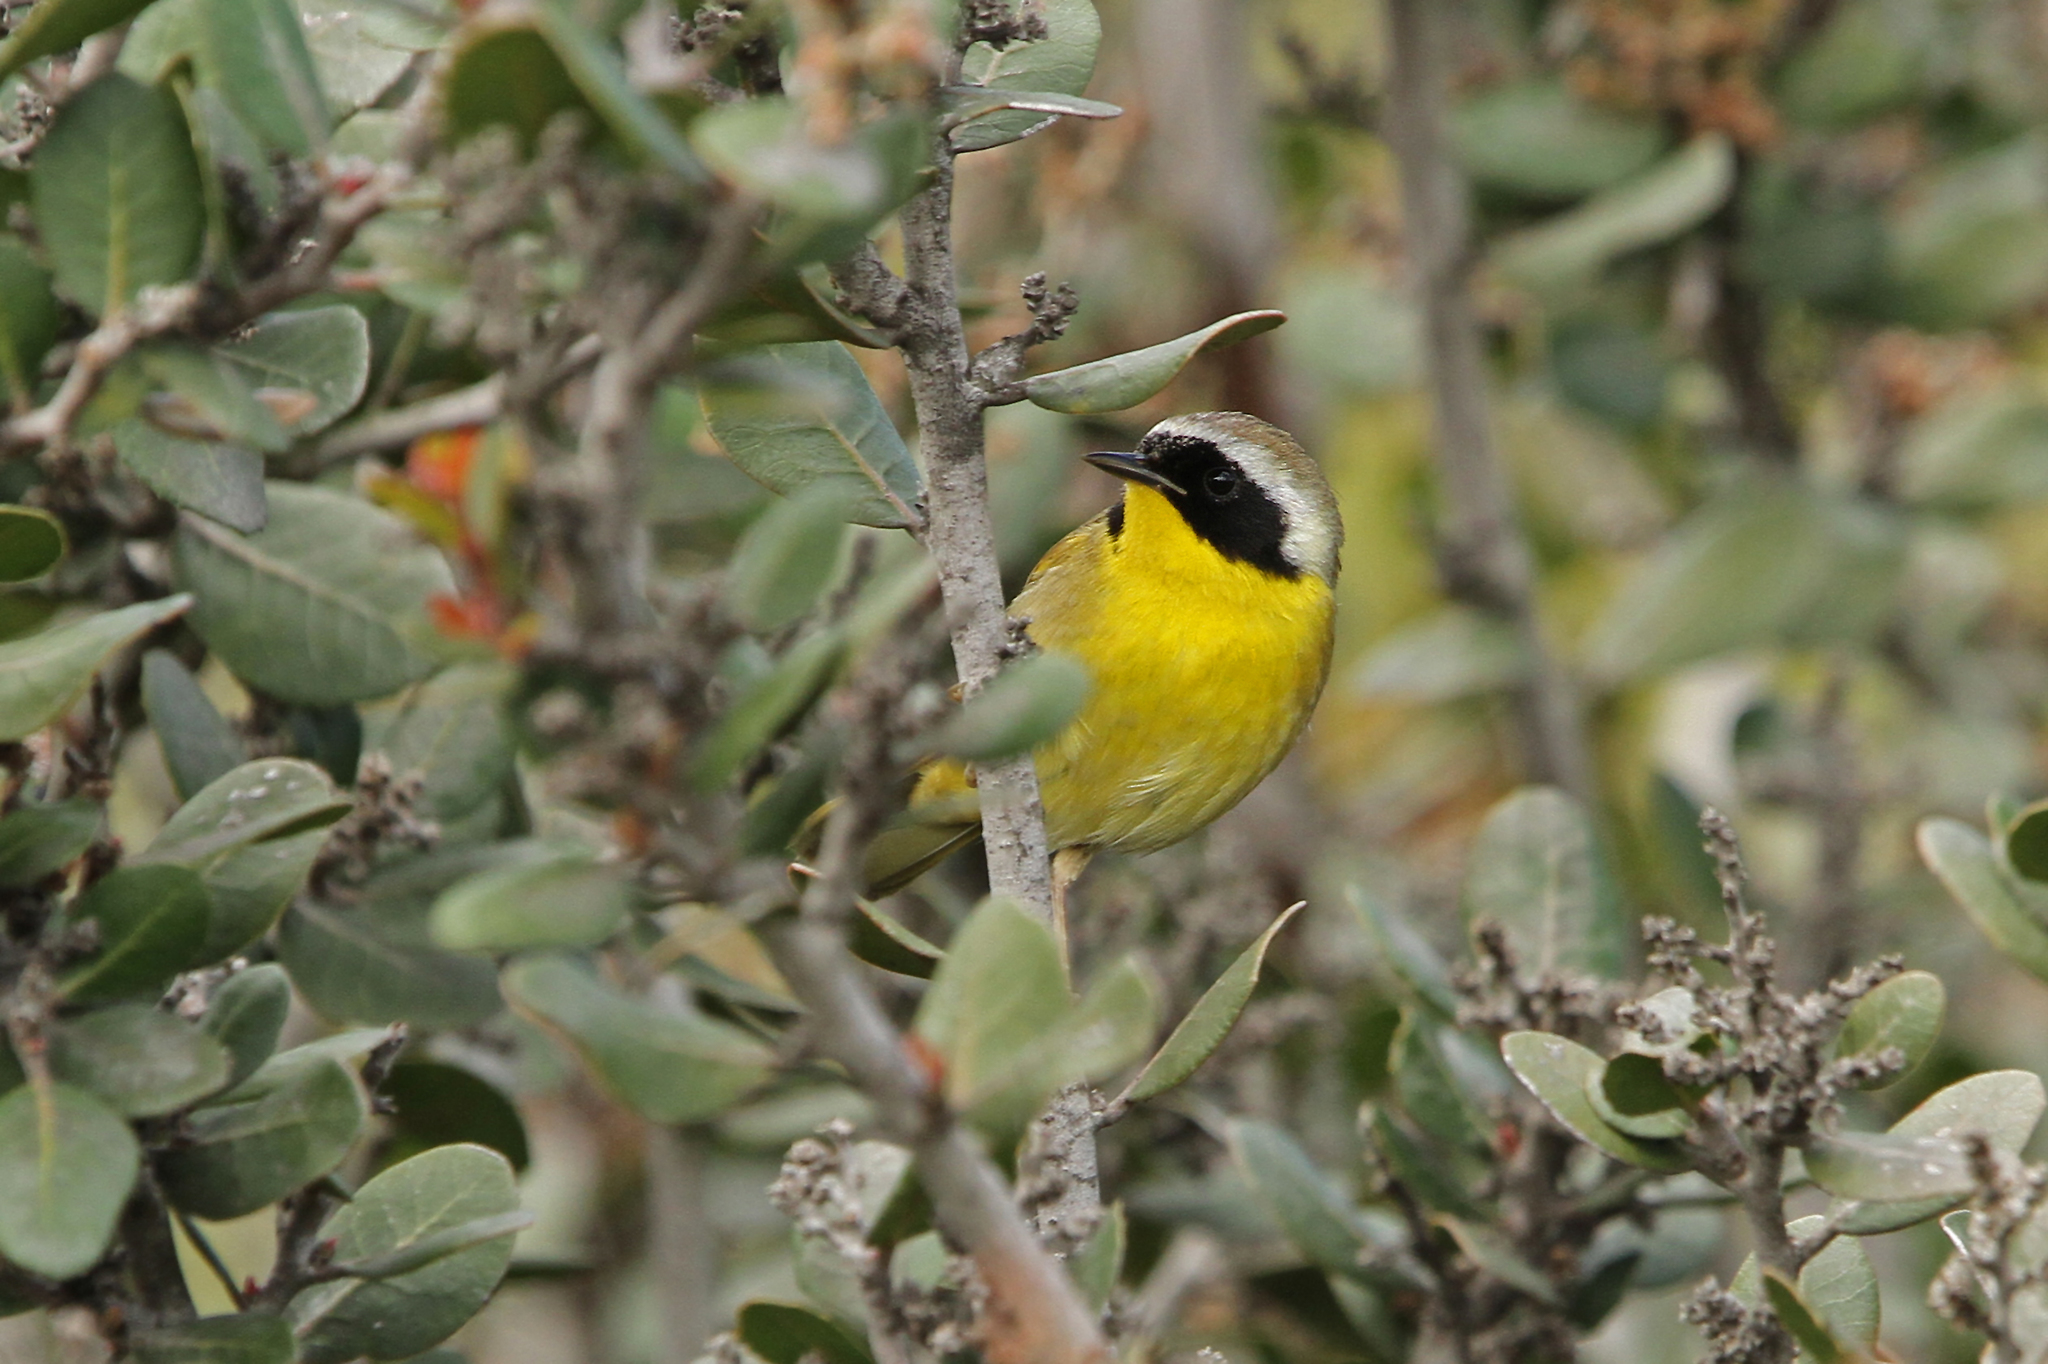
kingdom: Animalia
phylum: Chordata
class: Aves
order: Passeriformes
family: Parulidae
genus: Geothlypis
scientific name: Geothlypis trichas
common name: Common yellowthroat
